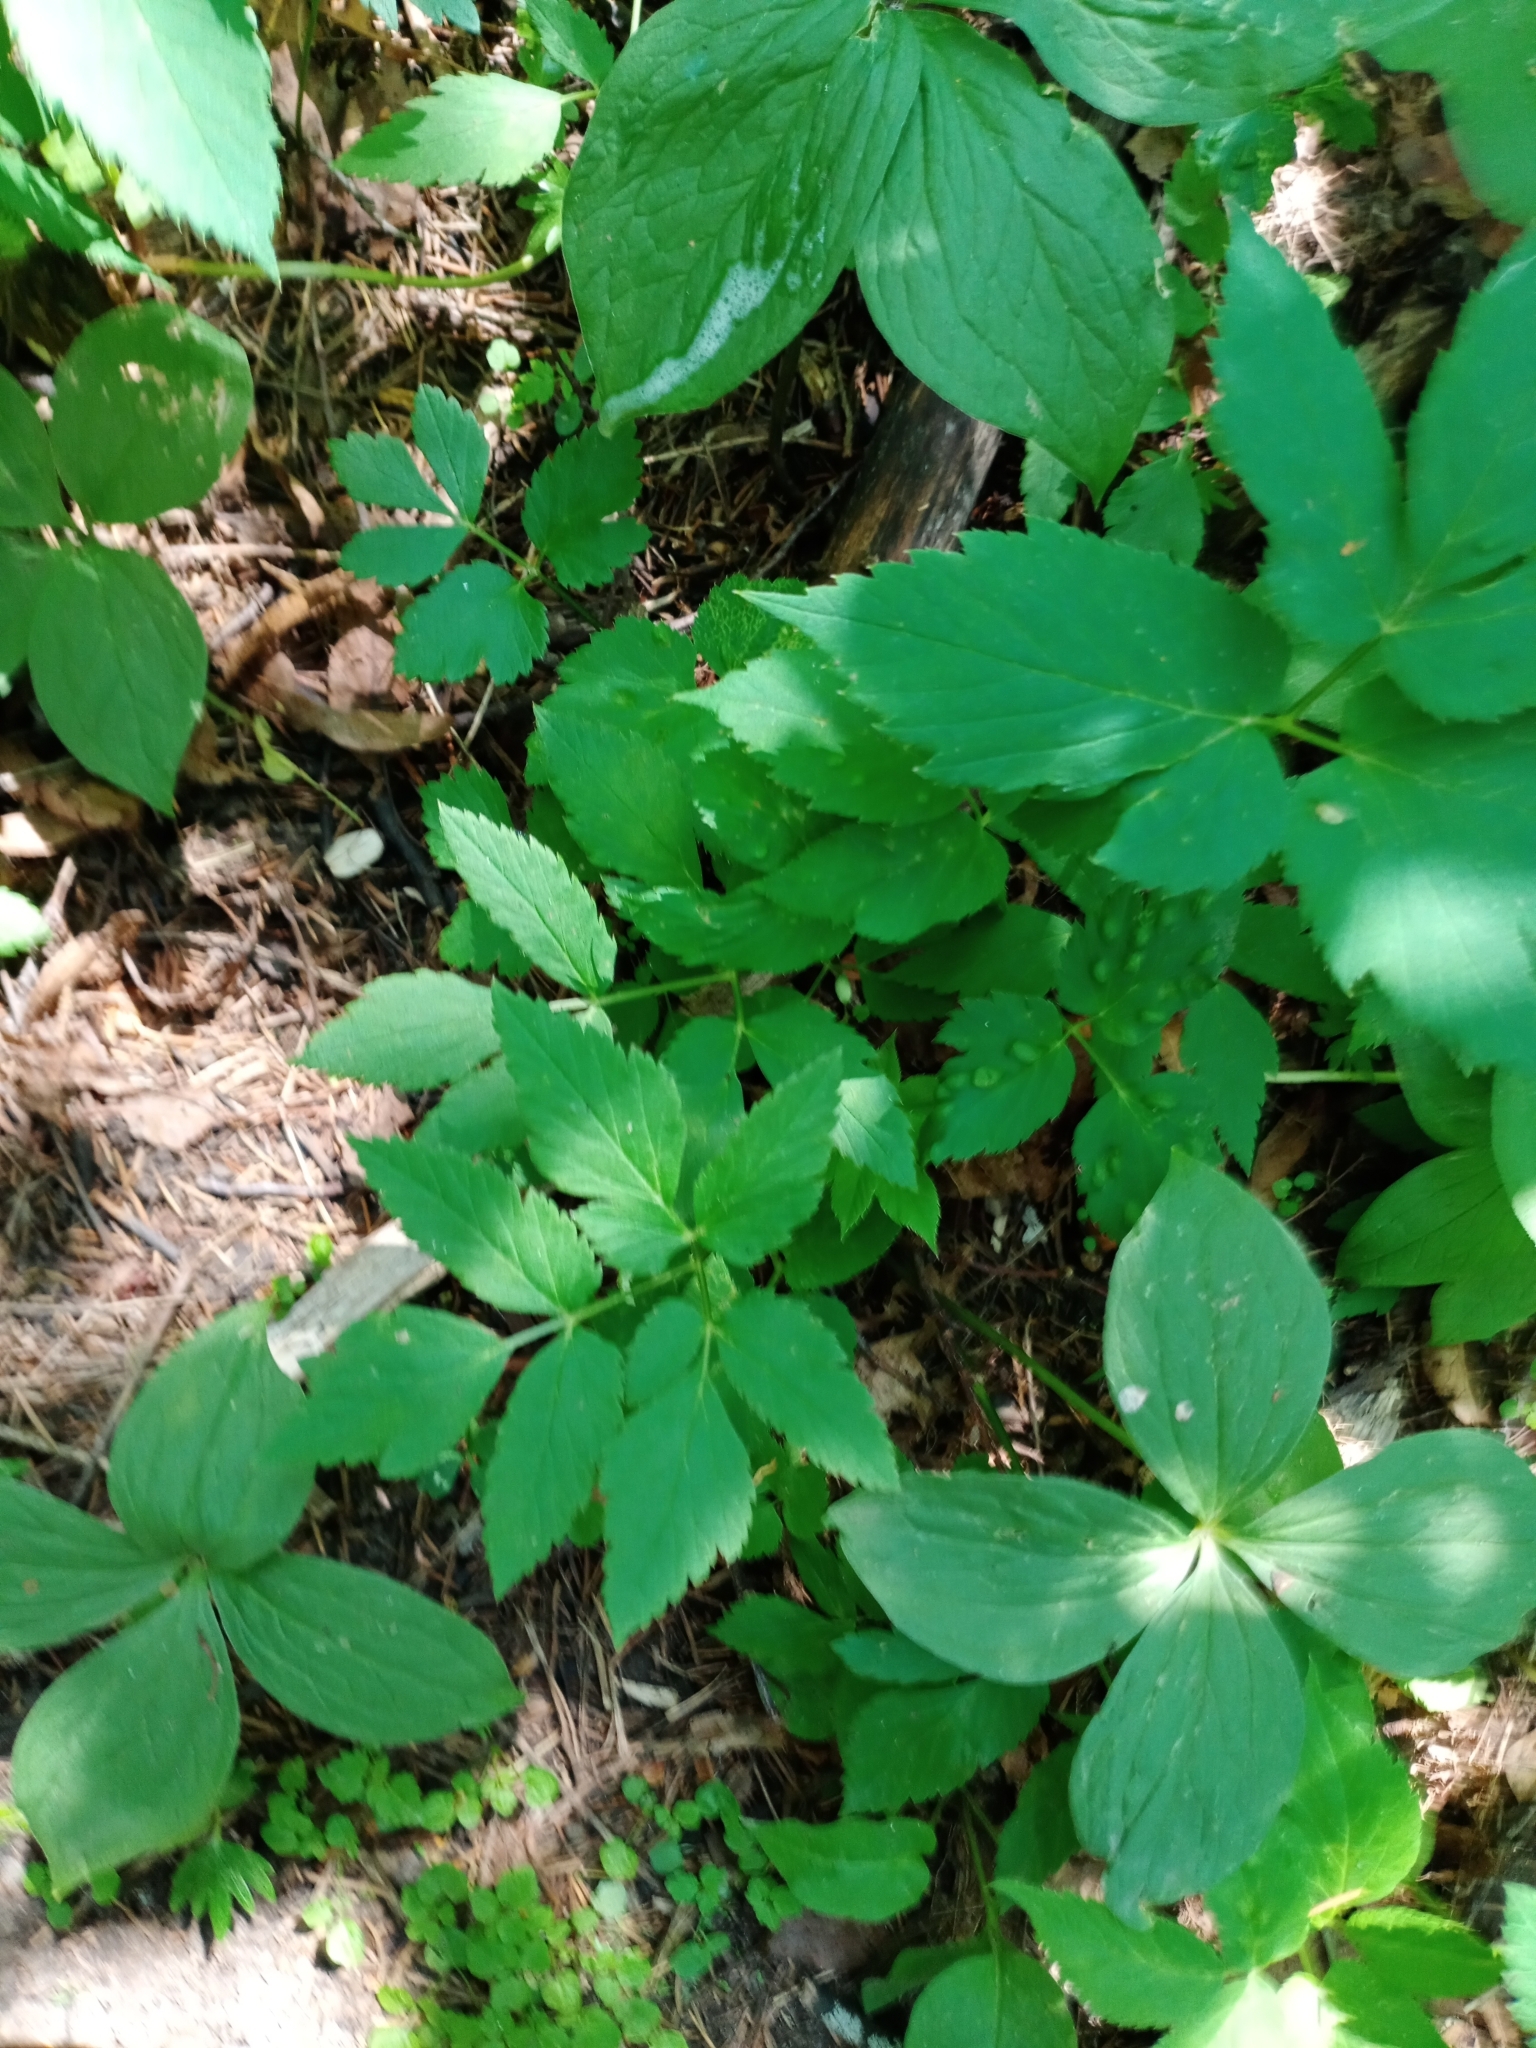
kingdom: Plantae
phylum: Tracheophyta
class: Magnoliopsida
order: Apiales
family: Apiaceae
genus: Aegopodium
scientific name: Aegopodium podagraria
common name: Ground-elder
